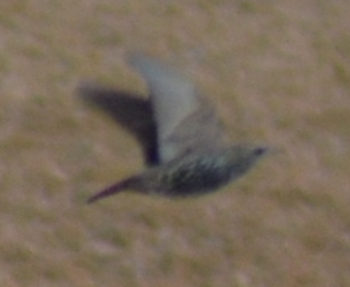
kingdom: Animalia
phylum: Chordata
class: Aves
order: Passeriformes
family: Sturnidae
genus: Sturnus
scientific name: Sturnus vulgaris
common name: Common starling
